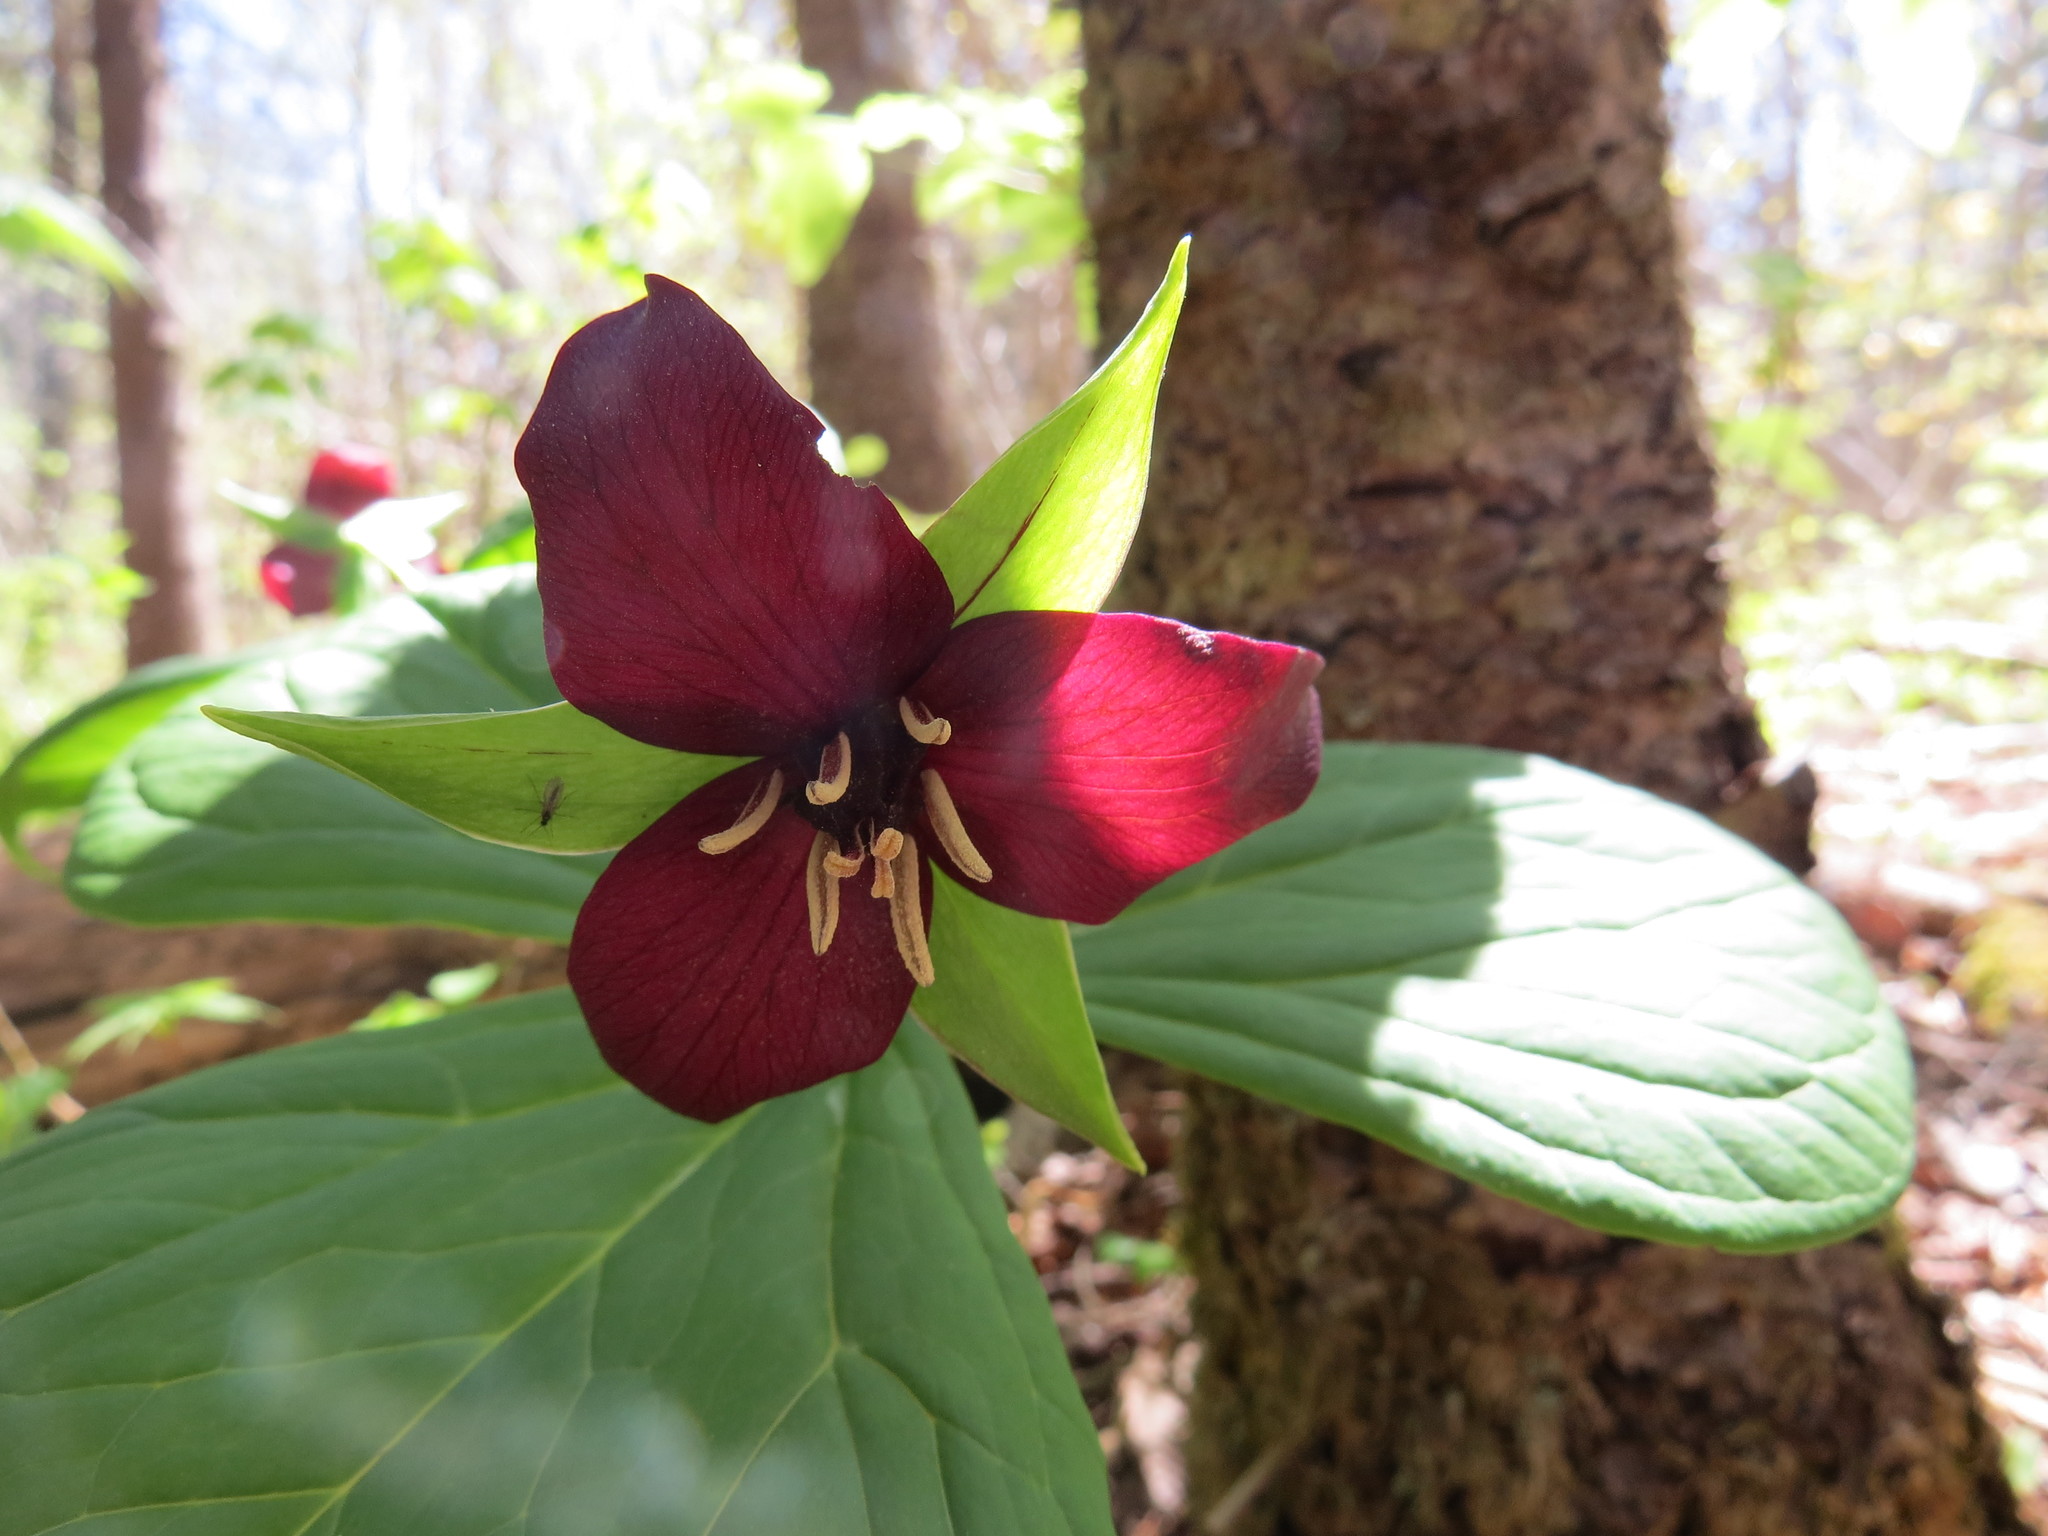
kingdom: Plantae
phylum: Tracheophyta
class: Liliopsida
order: Liliales
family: Melanthiaceae
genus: Trillium
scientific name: Trillium erectum
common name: Purple trillium
